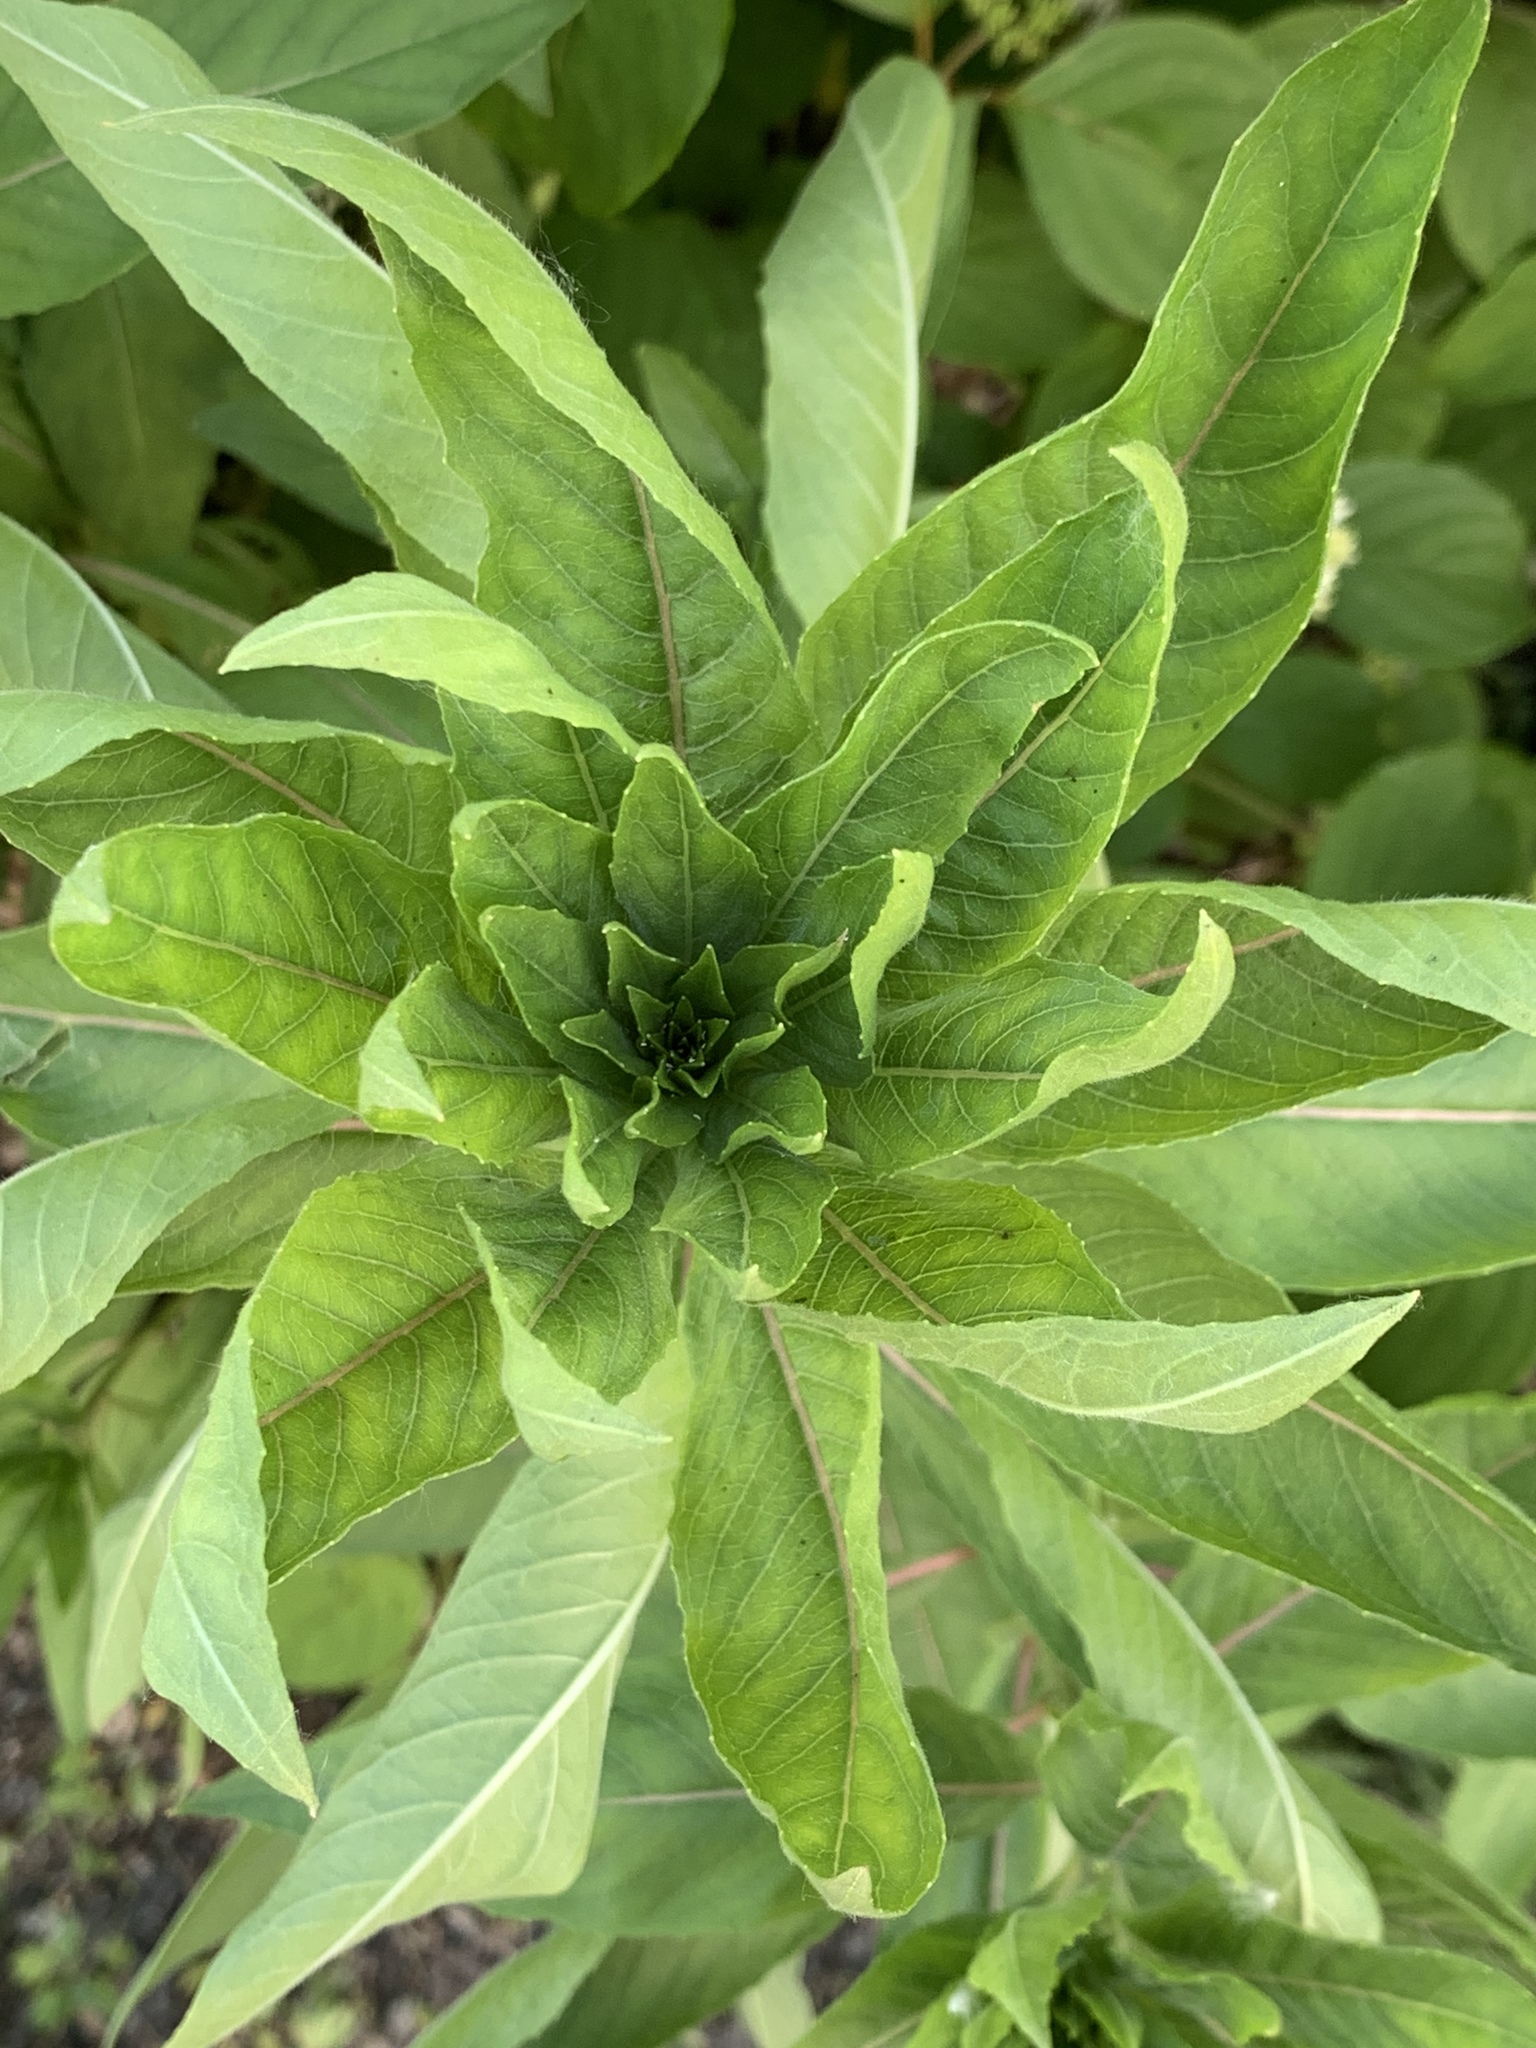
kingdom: Plantae
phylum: Tracheophyta
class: Magnoliopsida
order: Myrtales
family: Onagraceae
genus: Oenothera
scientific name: Oenothera biennis
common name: Common evening-primrose
